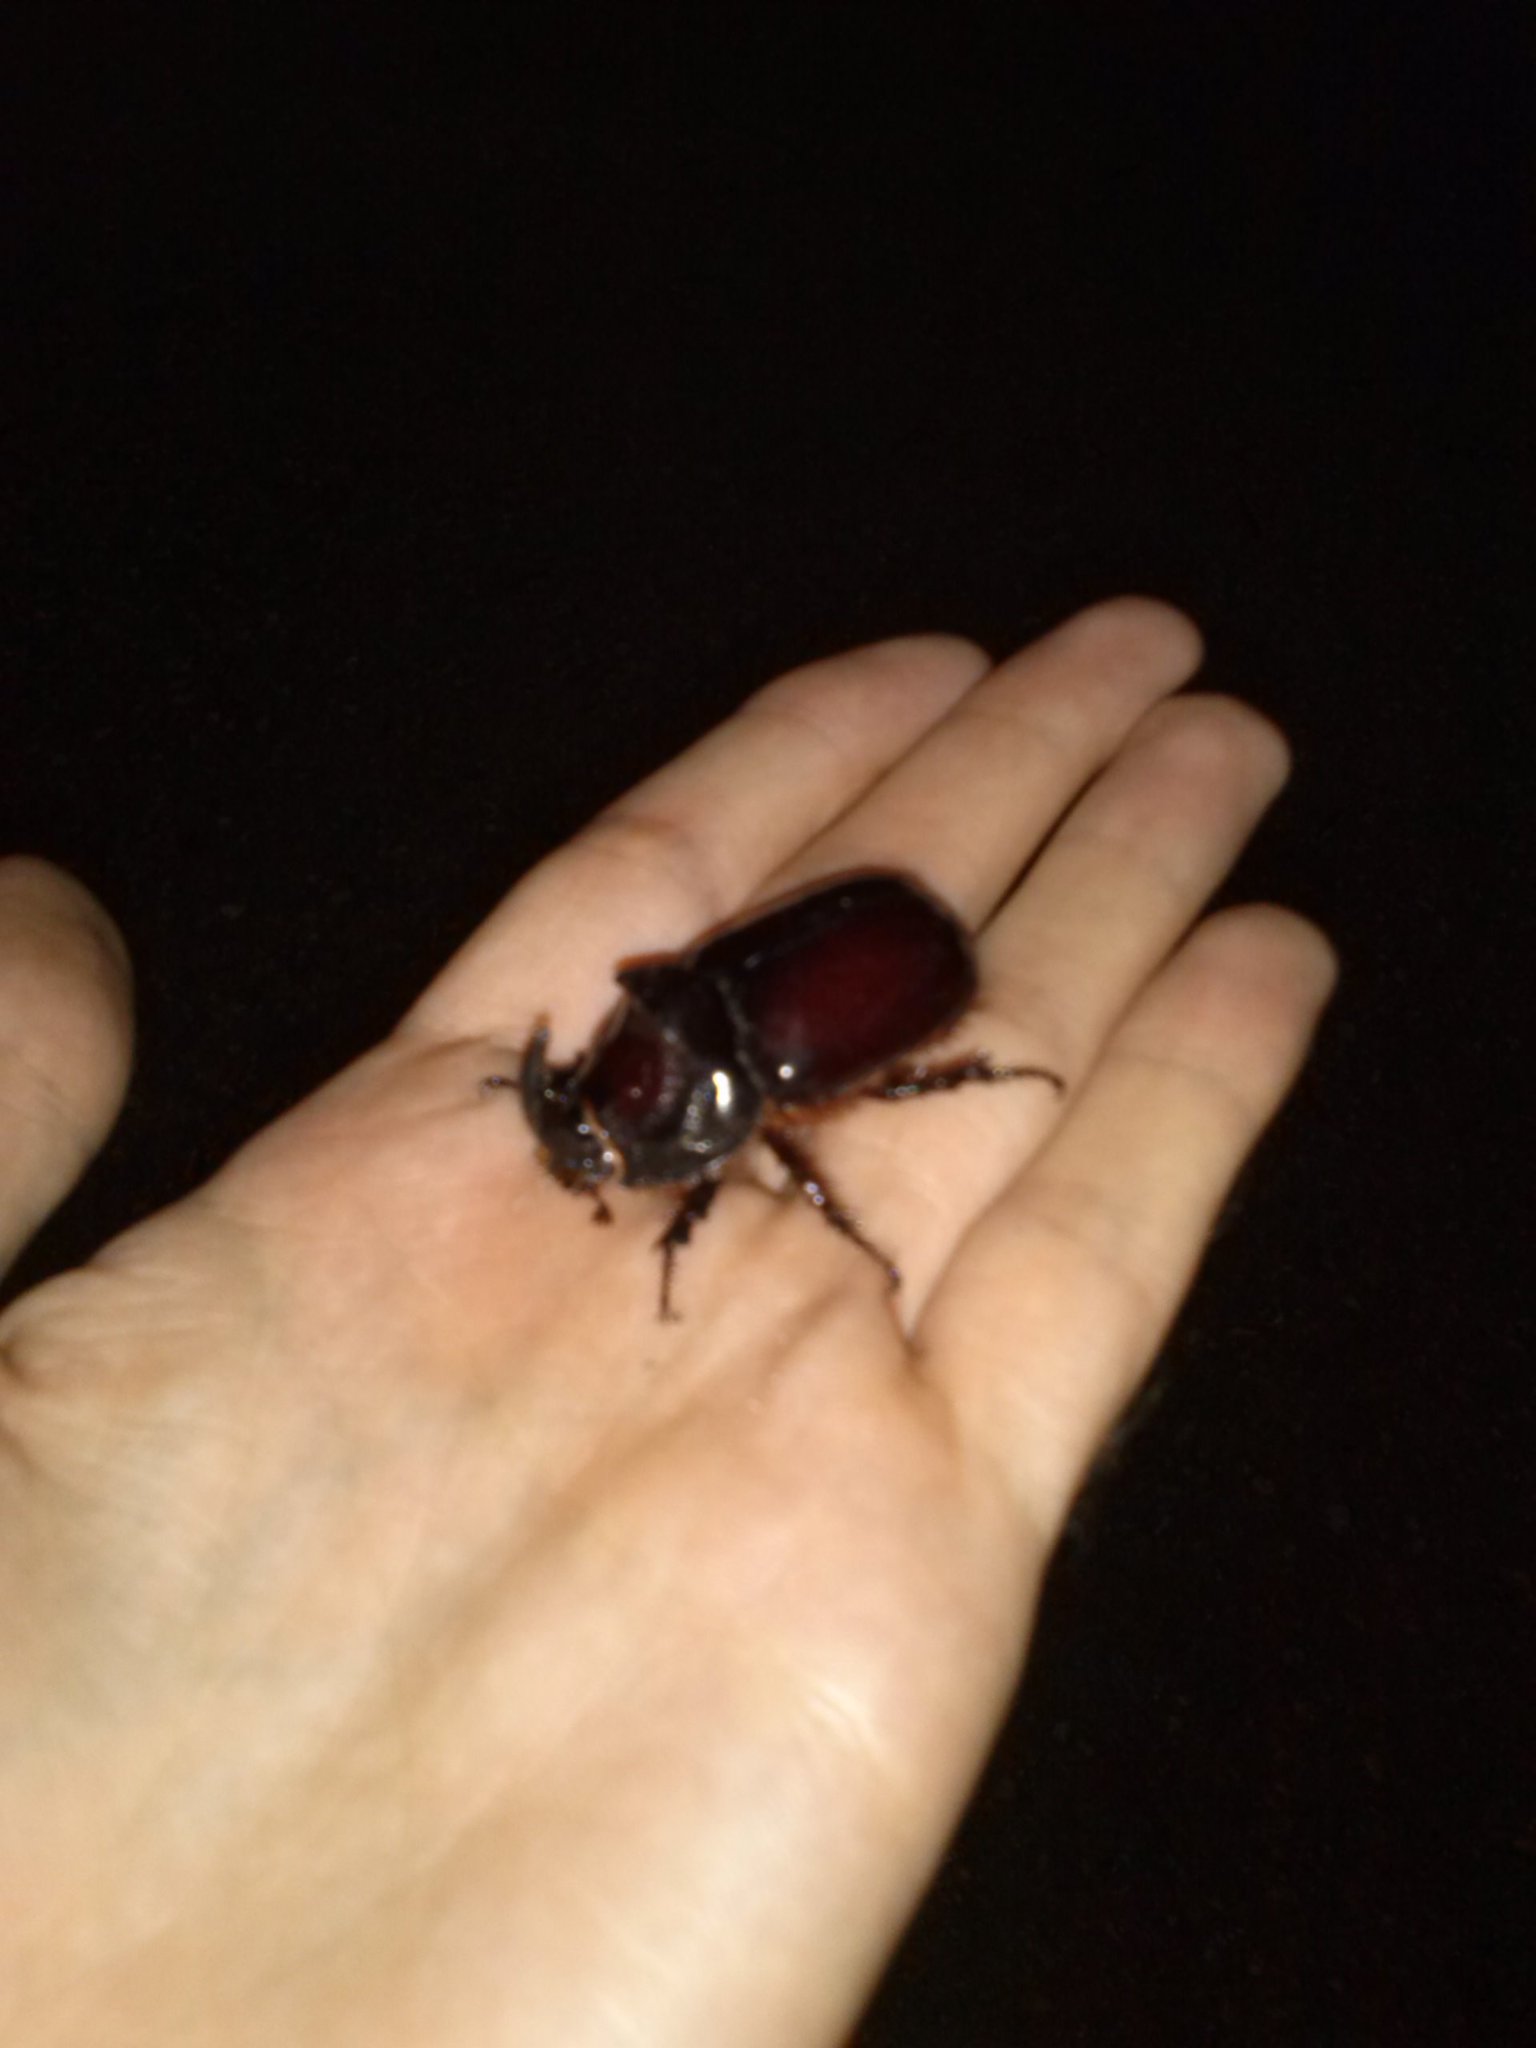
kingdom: Animalia
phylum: Arthropoda
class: Insecta
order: Coleoptera
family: Scarabaeidae
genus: Oryctes
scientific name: Oryctes nasicornis
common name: European rhinoceros beetle
